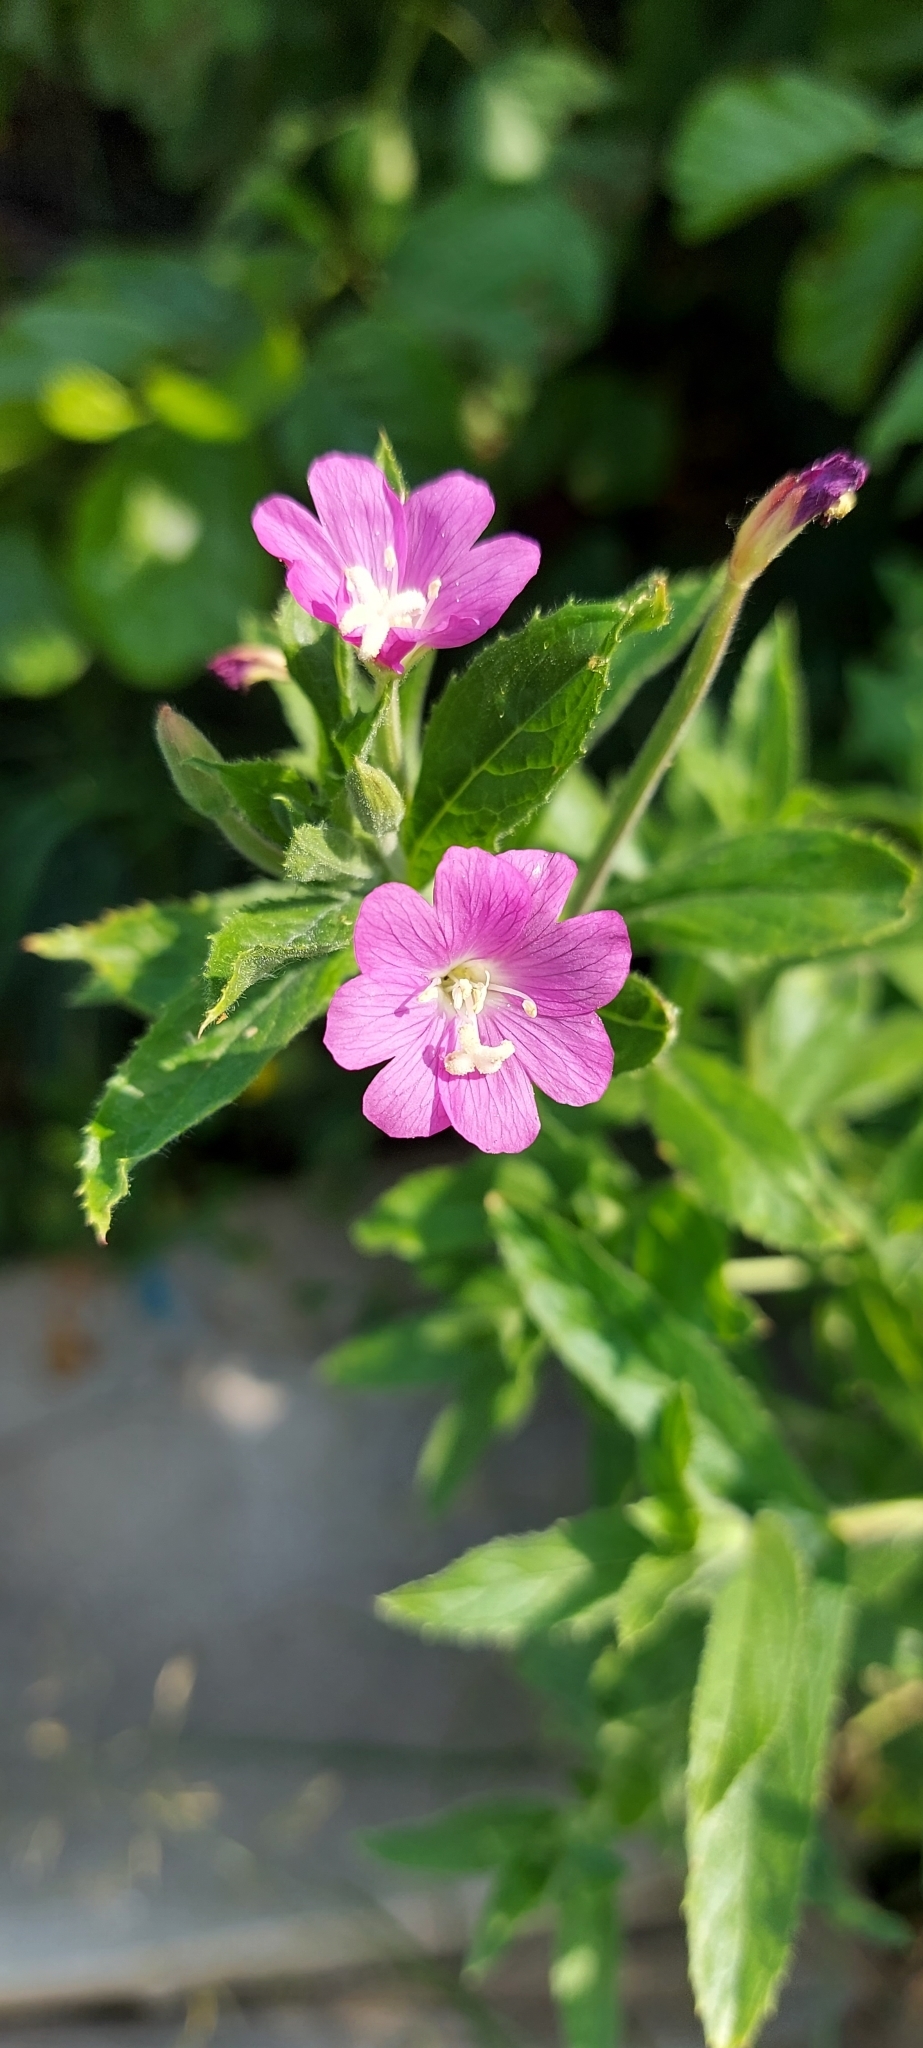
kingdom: Plantae
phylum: Tracheophyta
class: Magnoliopsida
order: Myrtales
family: Onagraceae
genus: Epilobium
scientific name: Epilobium hirsutum
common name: Great willowherb
